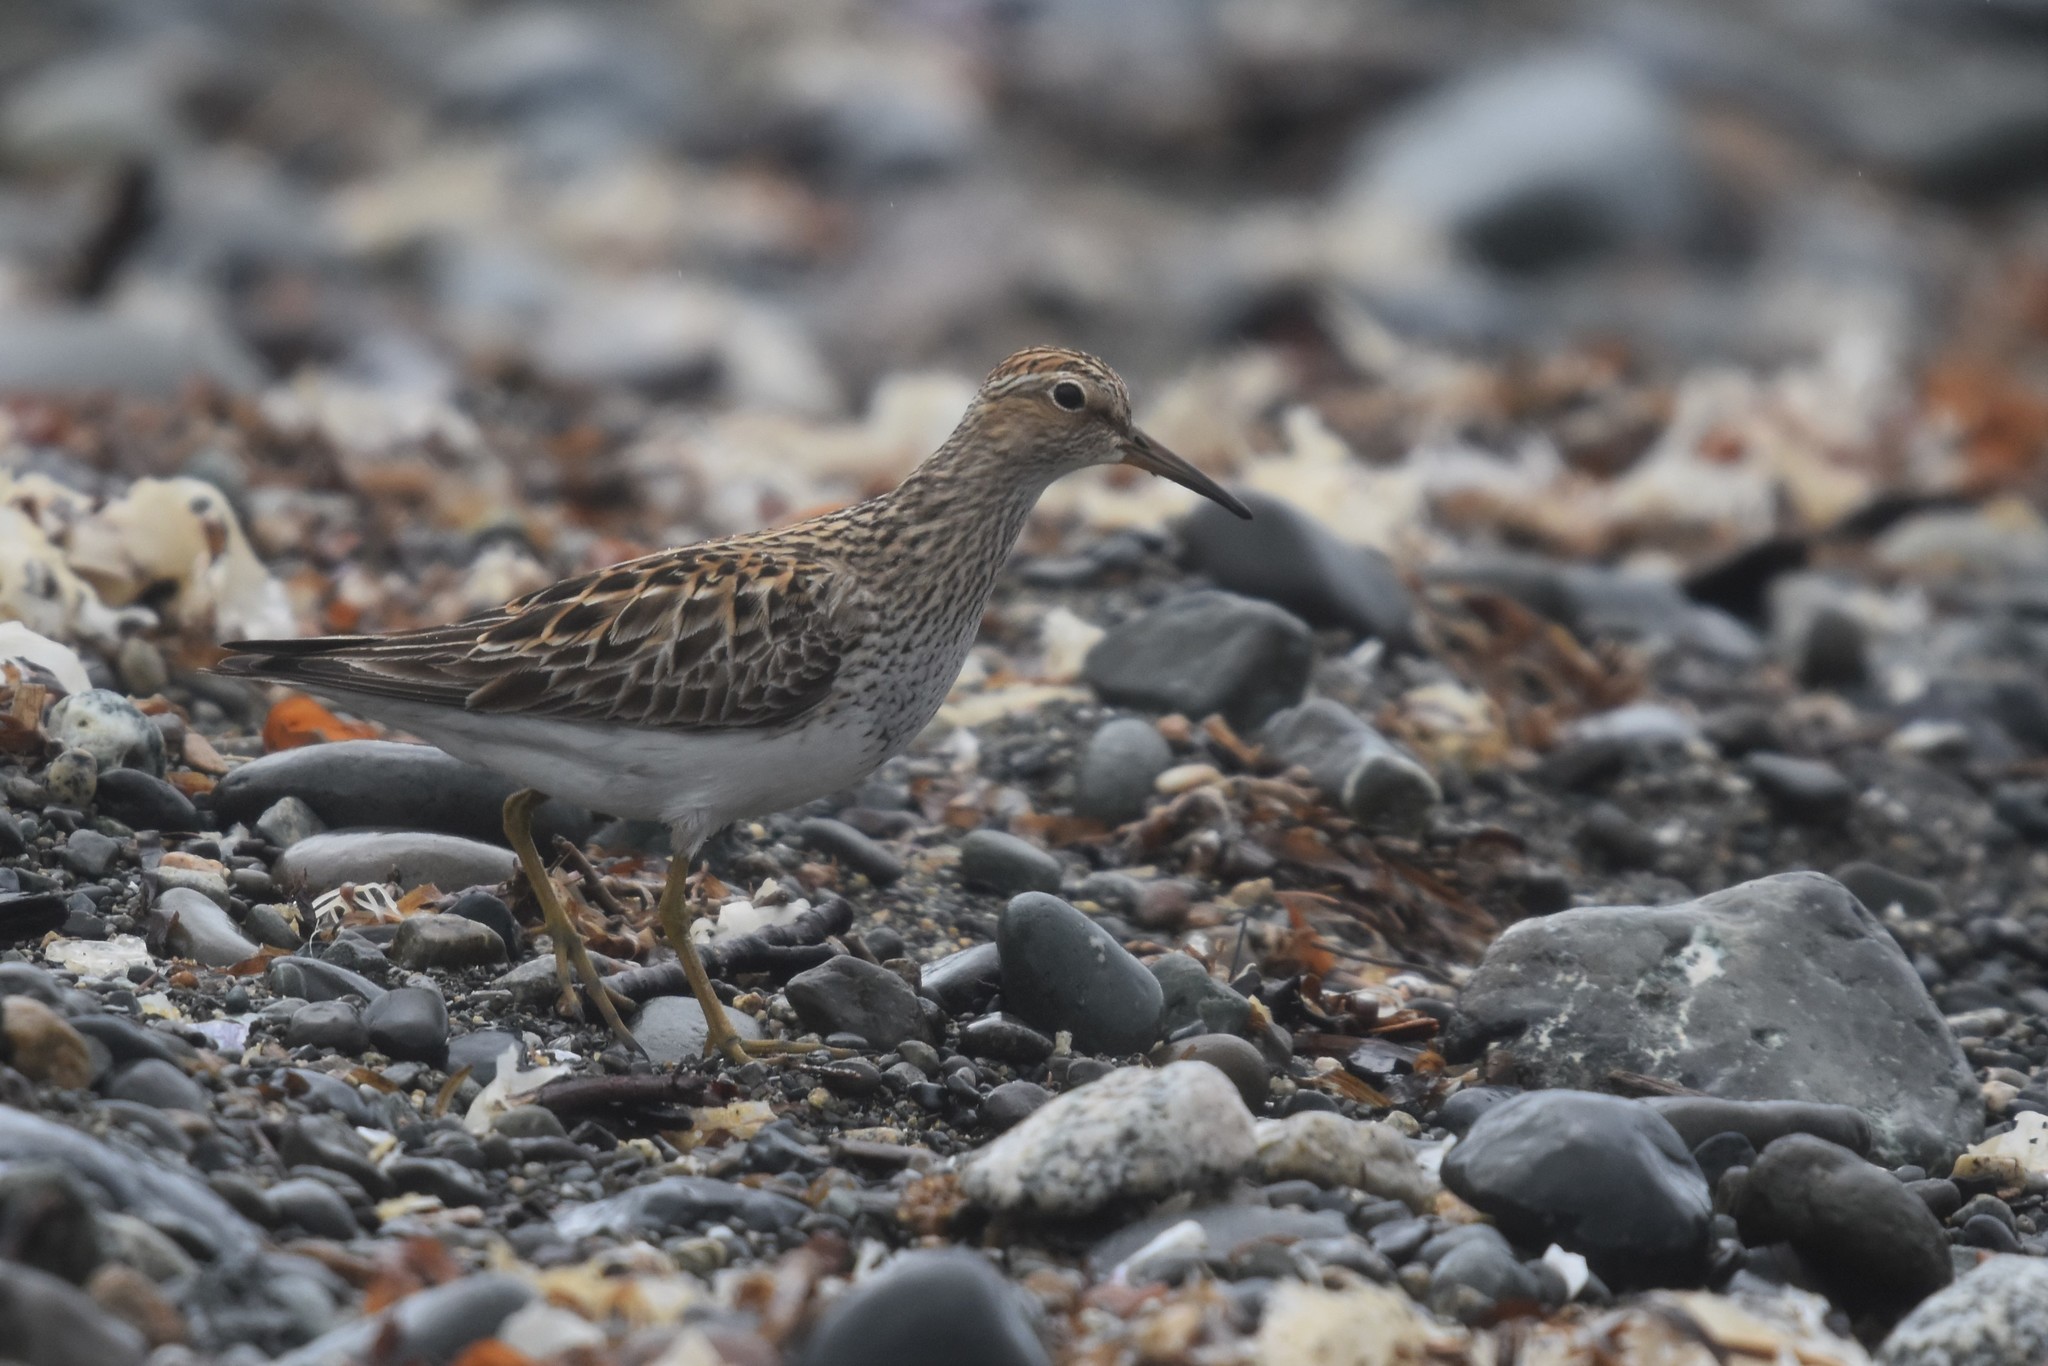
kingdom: Animalia
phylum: Chordata
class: Aves
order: Charadriiformes
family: Scolopacidae
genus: Calidris
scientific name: Calidris melanotos
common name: Pectoral sandpiper
